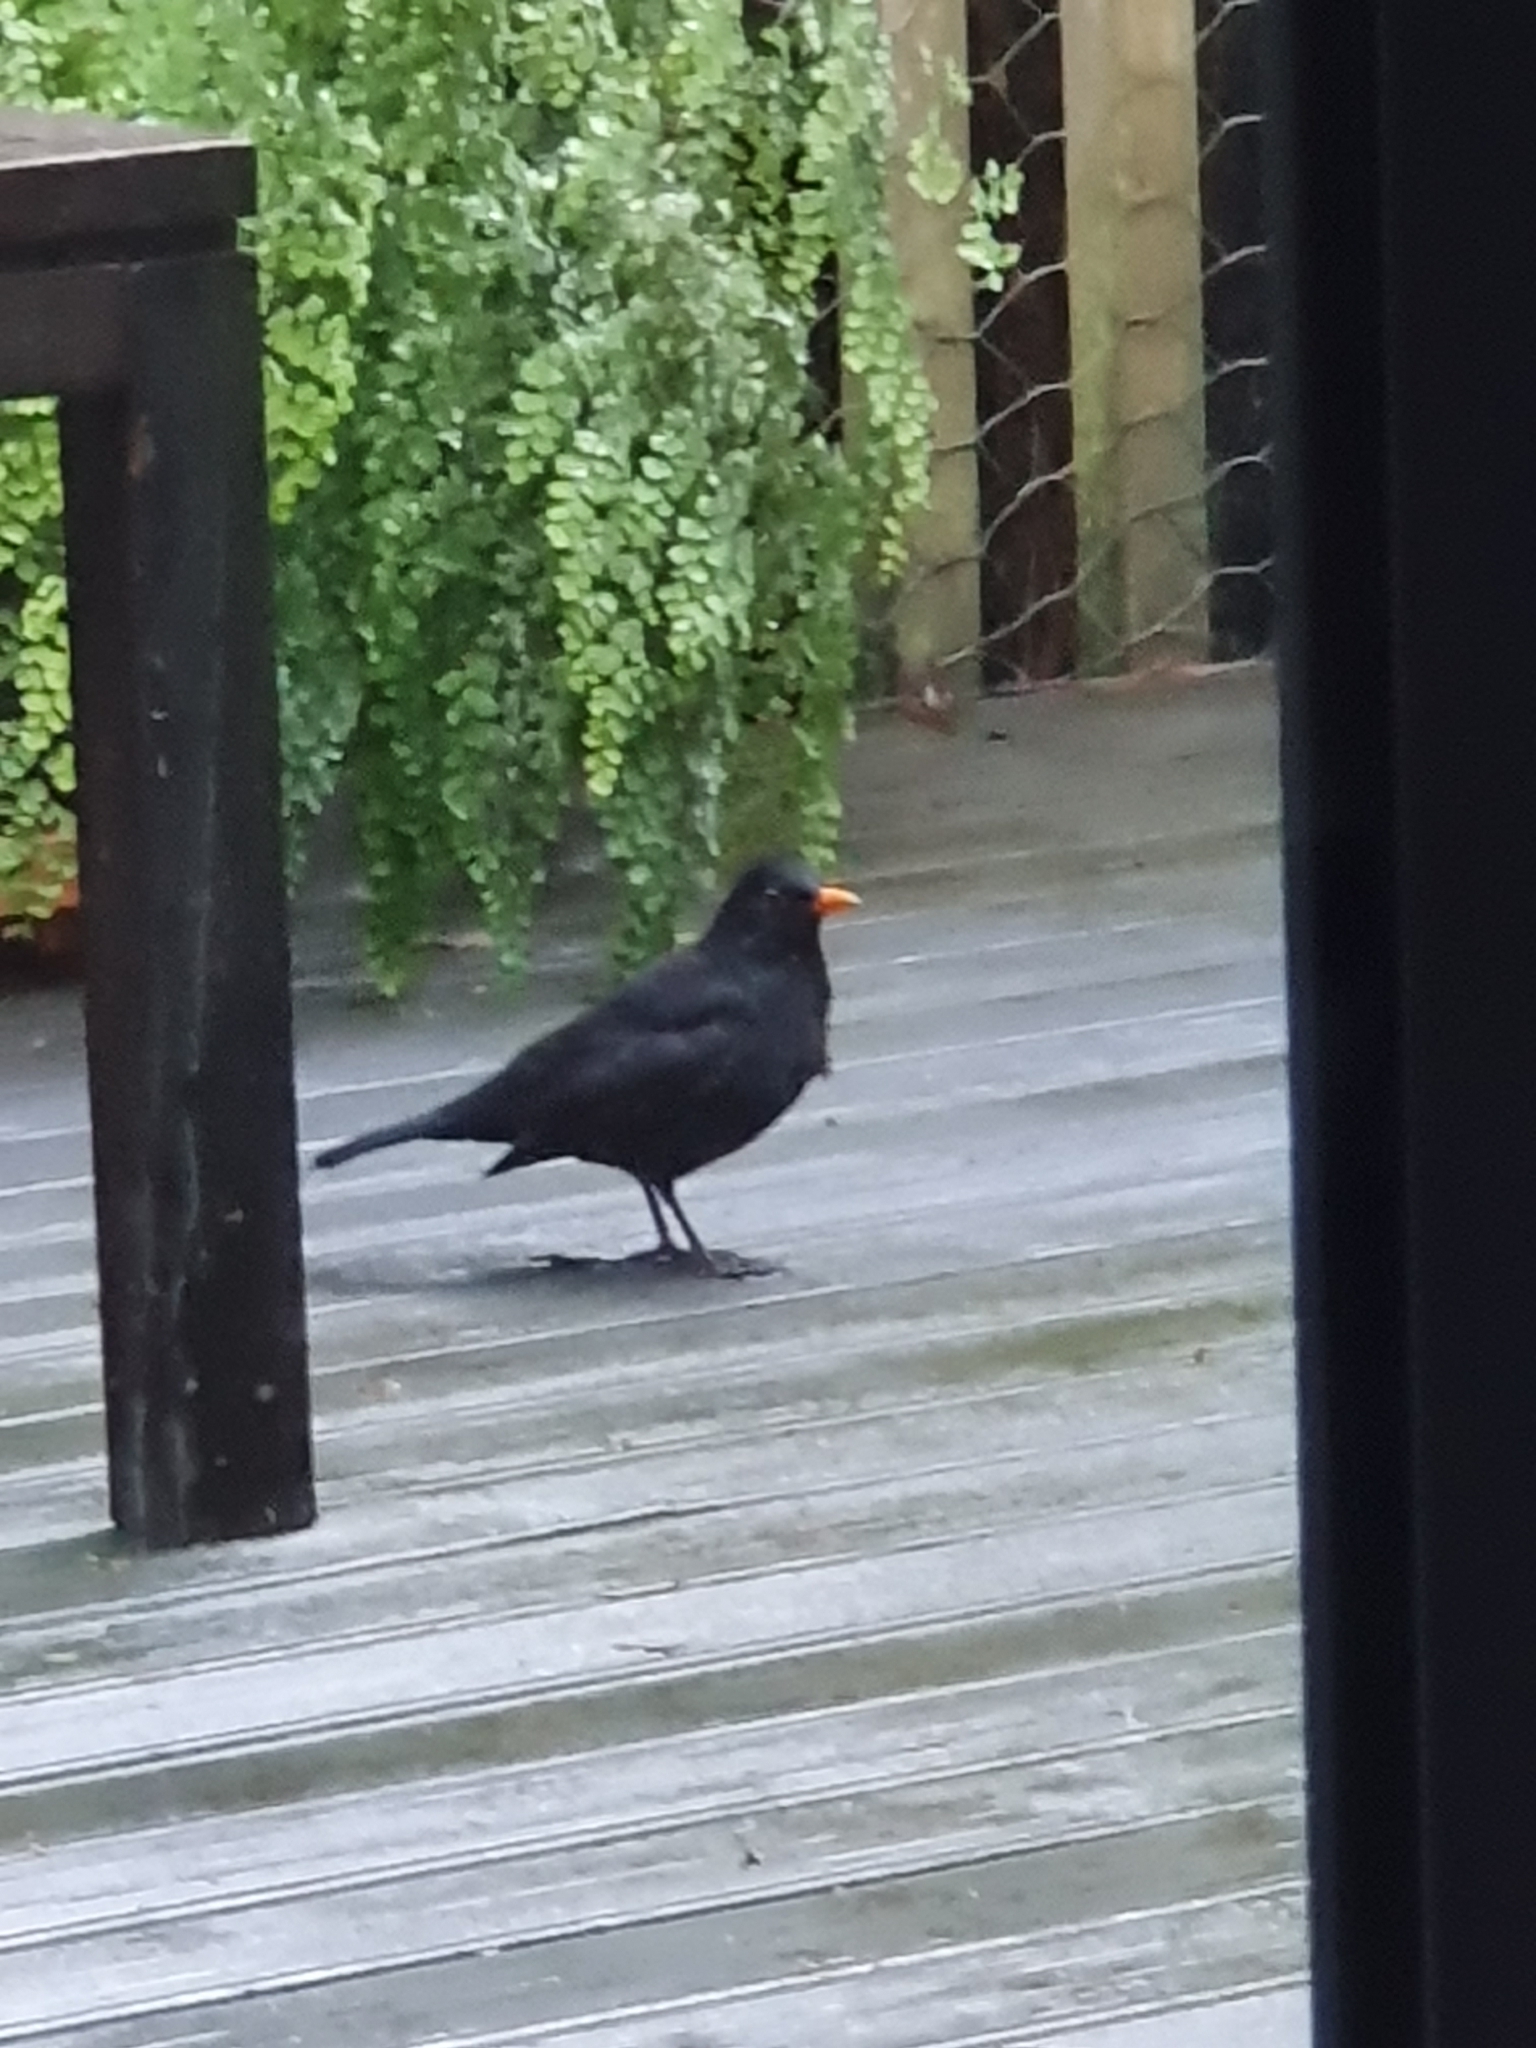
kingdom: Animalia
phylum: Chordata
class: Aves
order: Passeriformes
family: Turdidae
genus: Turdus
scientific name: Turdus merula
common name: Common blackbird
